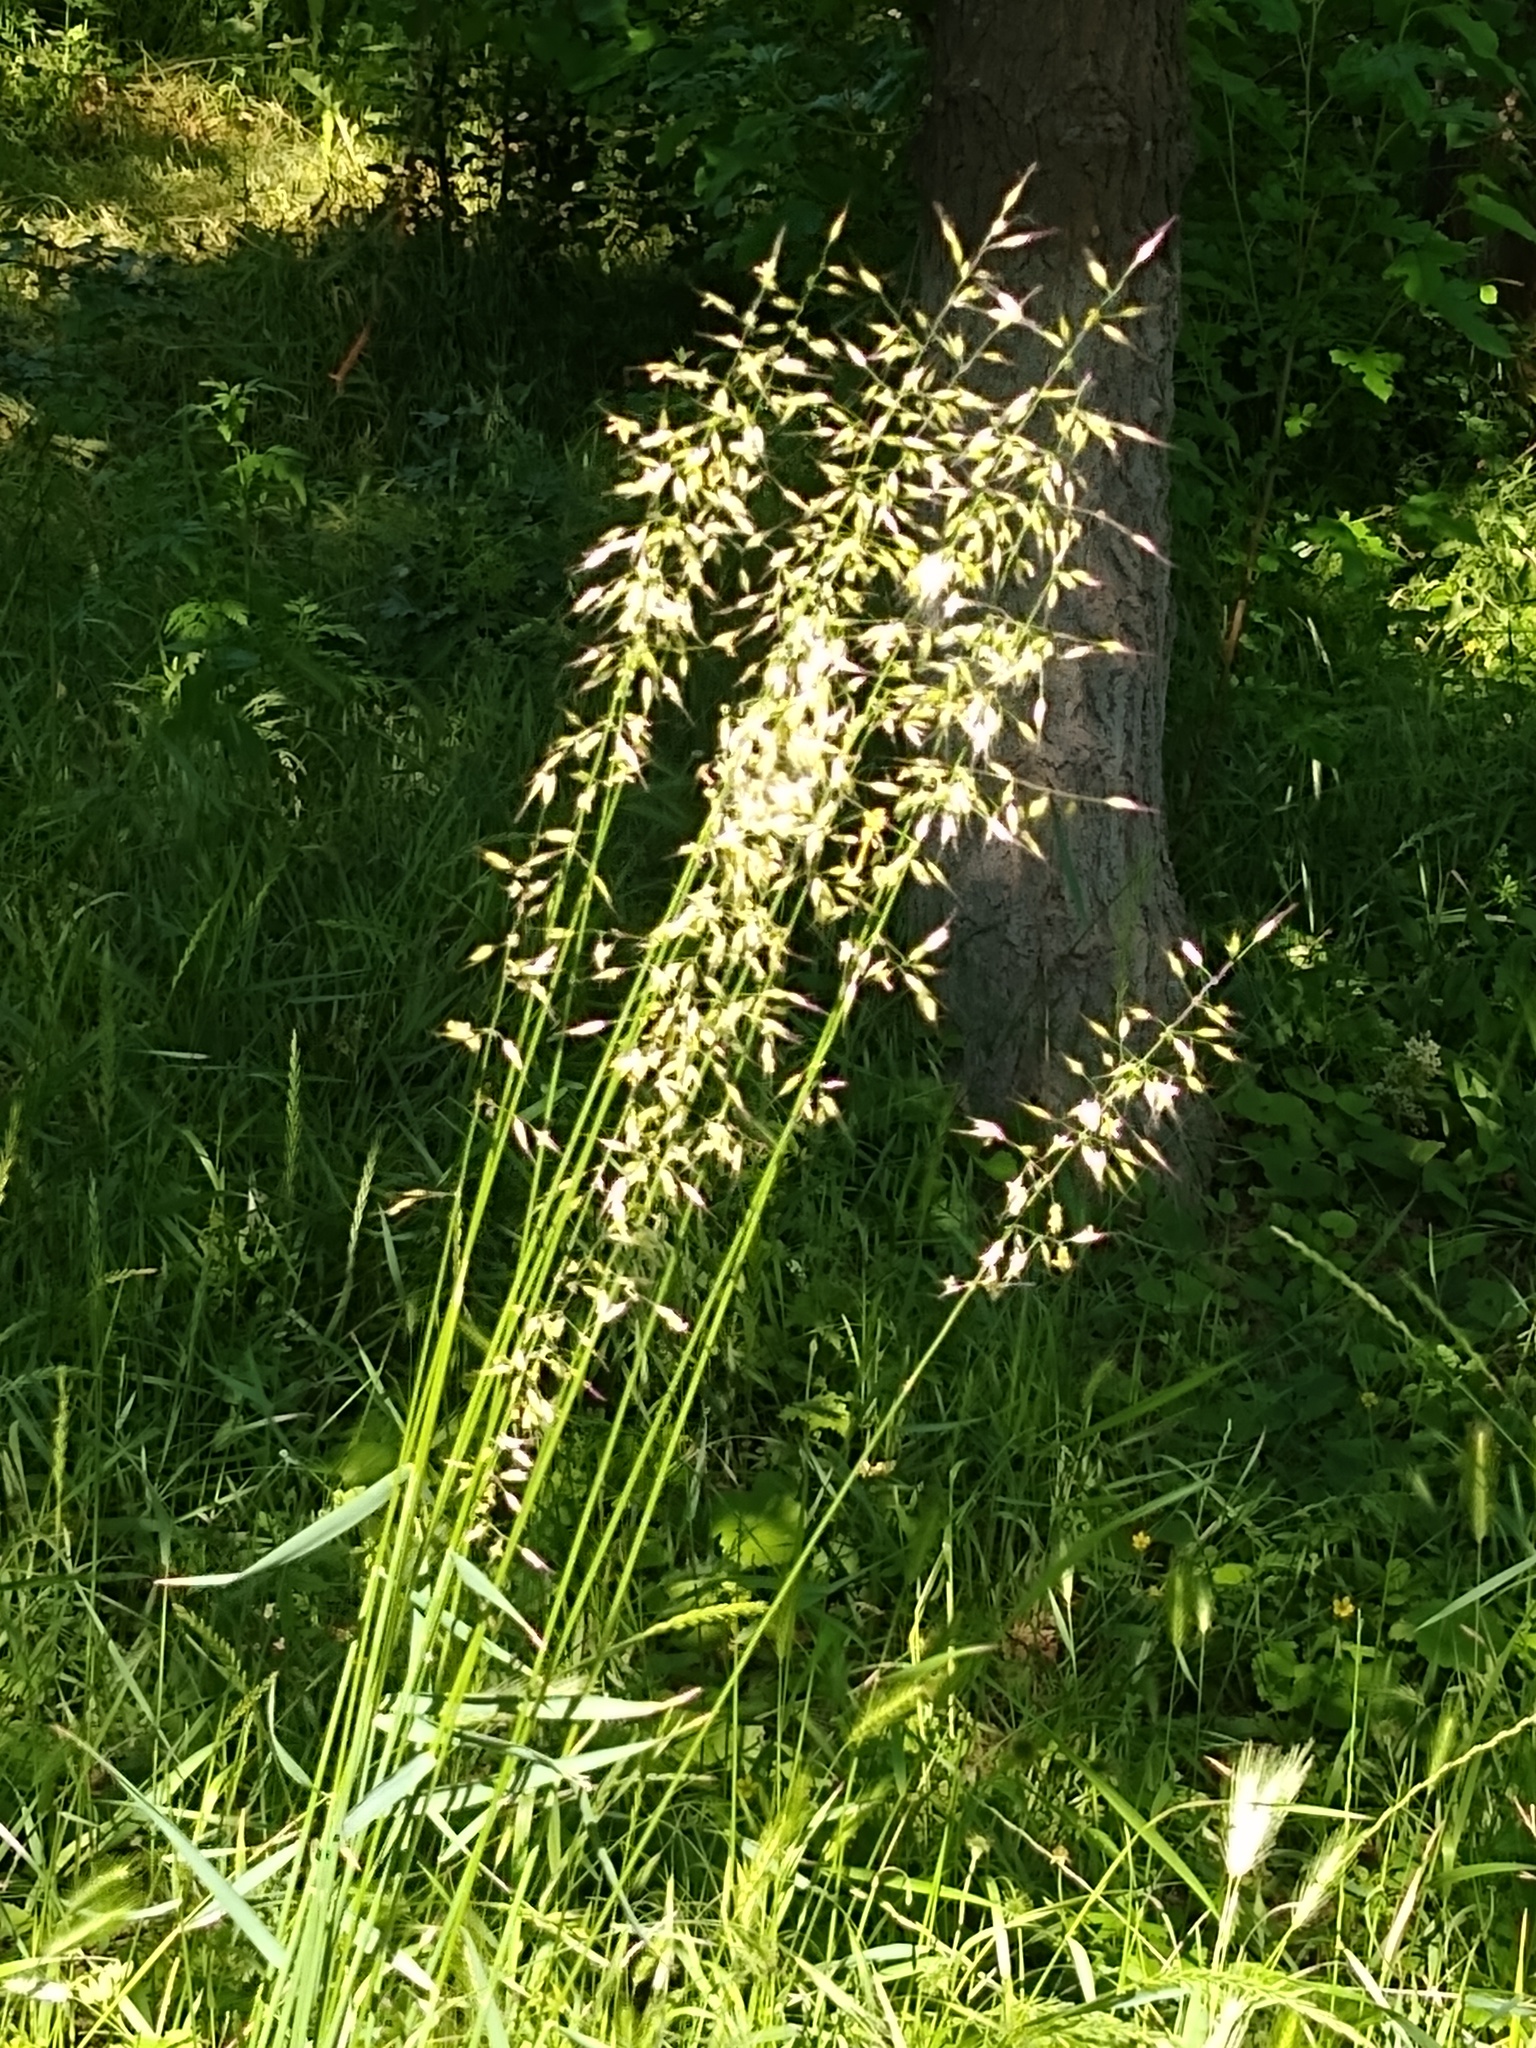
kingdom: Plantae
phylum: Tracheophyta
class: Liliopsida
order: Poales
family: Poaceae
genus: Arrhenatherum
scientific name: Arrhenatherum elatius
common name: Tall oatgrass
